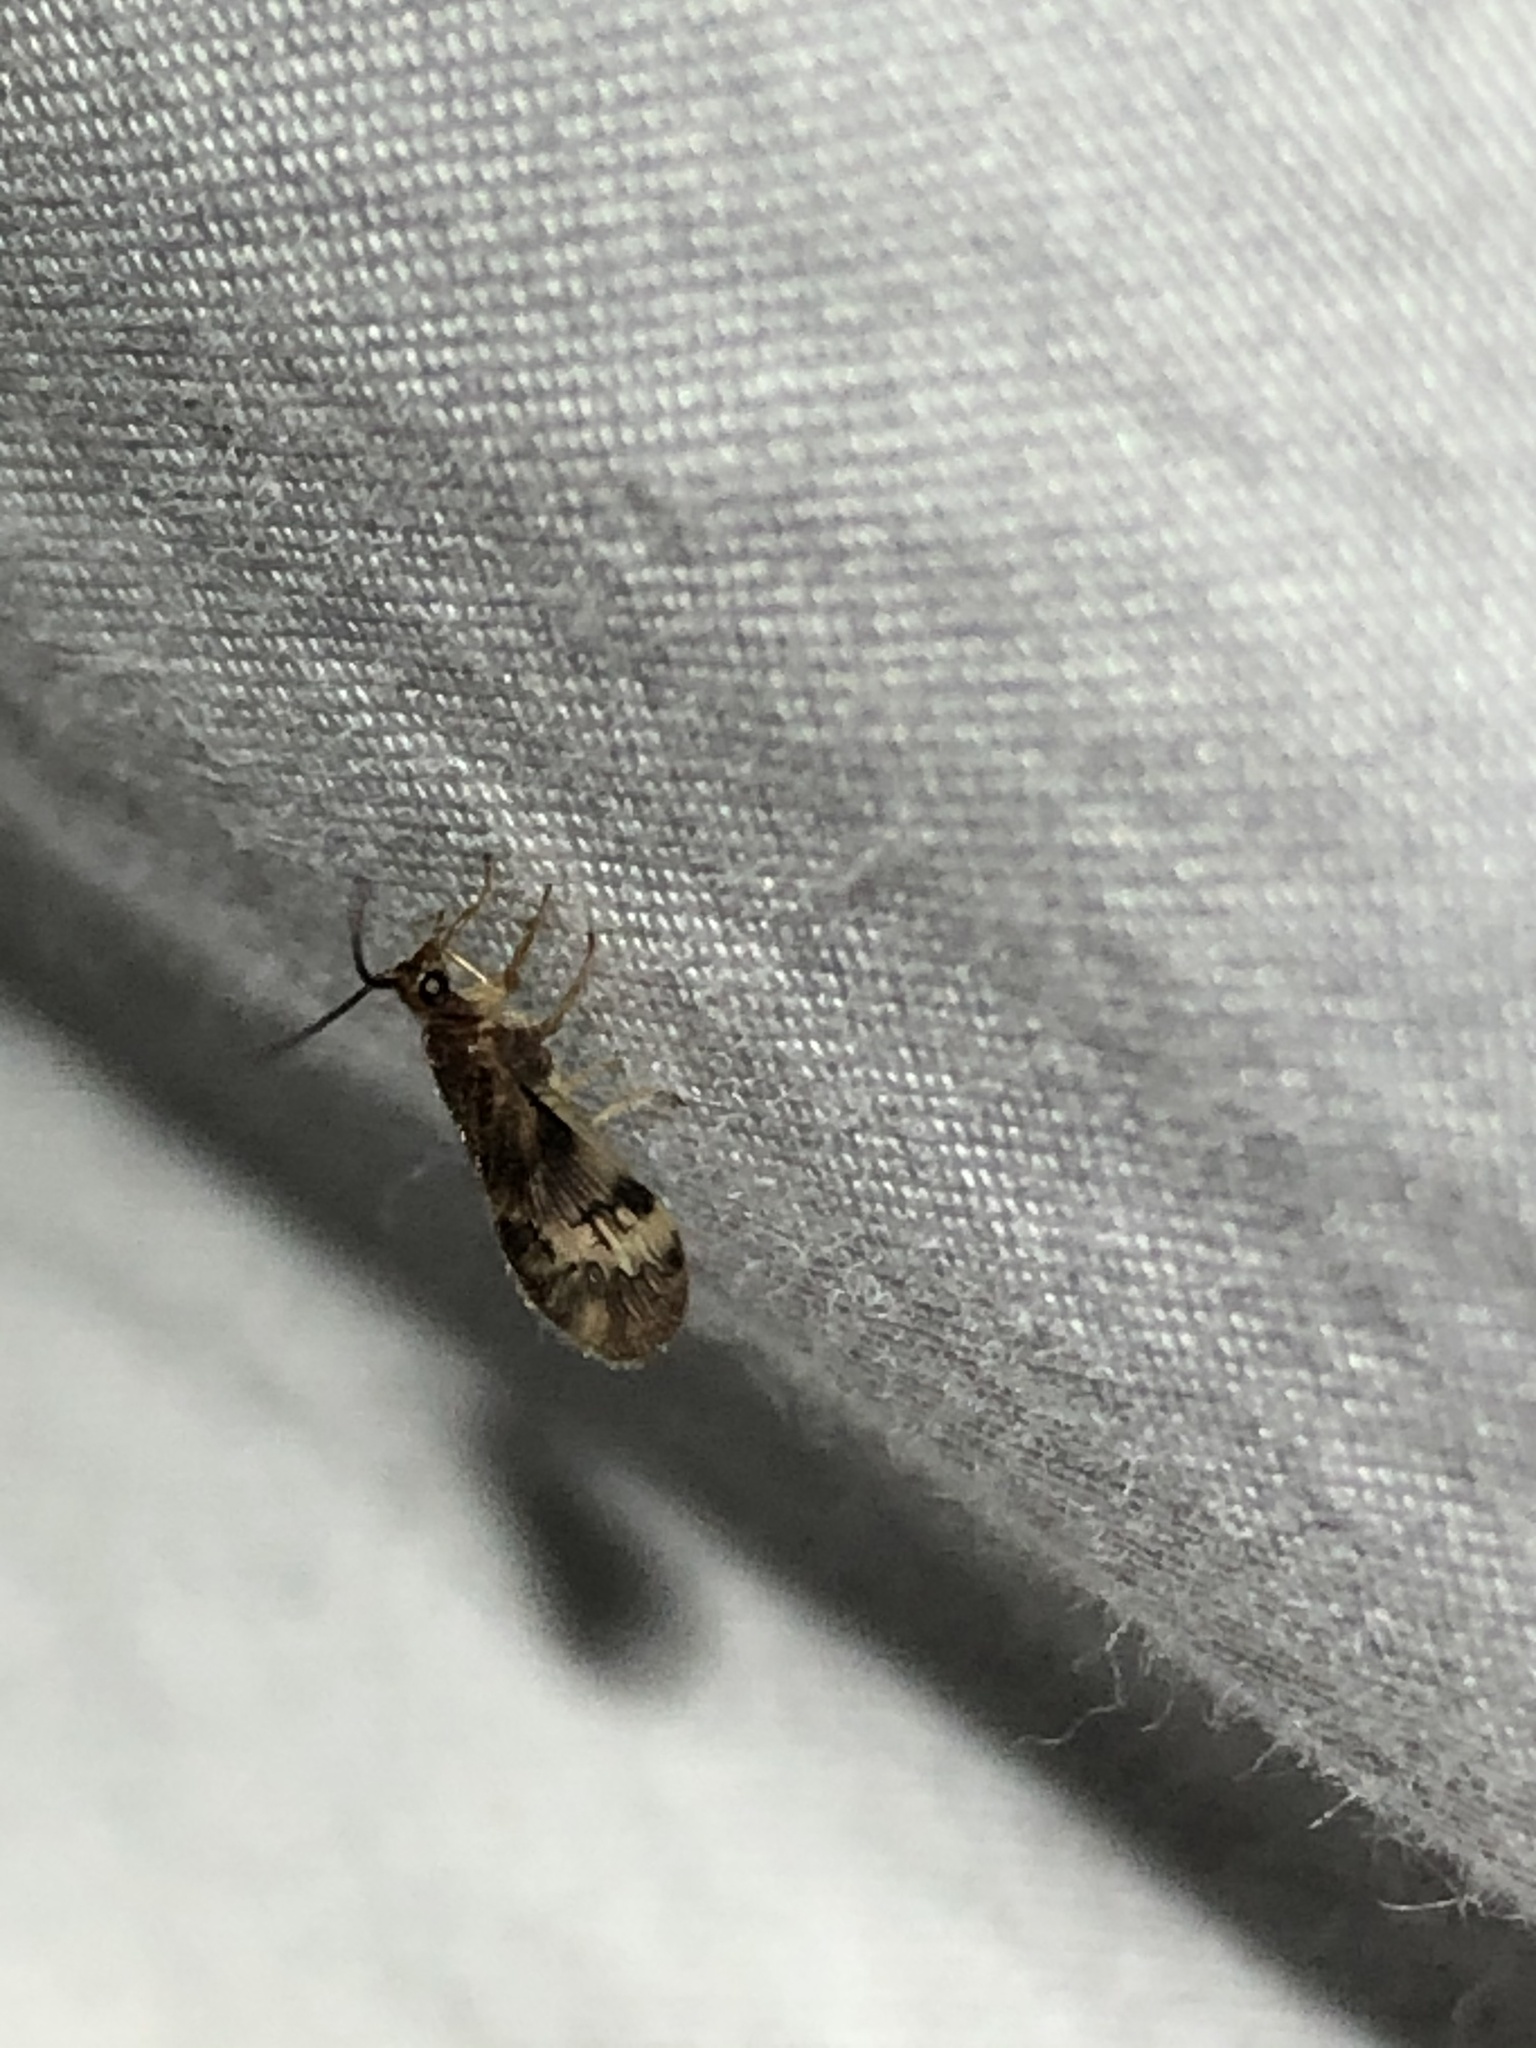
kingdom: Animalia
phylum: Arthropoda
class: Insecta
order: Neuroptera
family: Sisyridae
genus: Climacia
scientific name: Climacia californica
